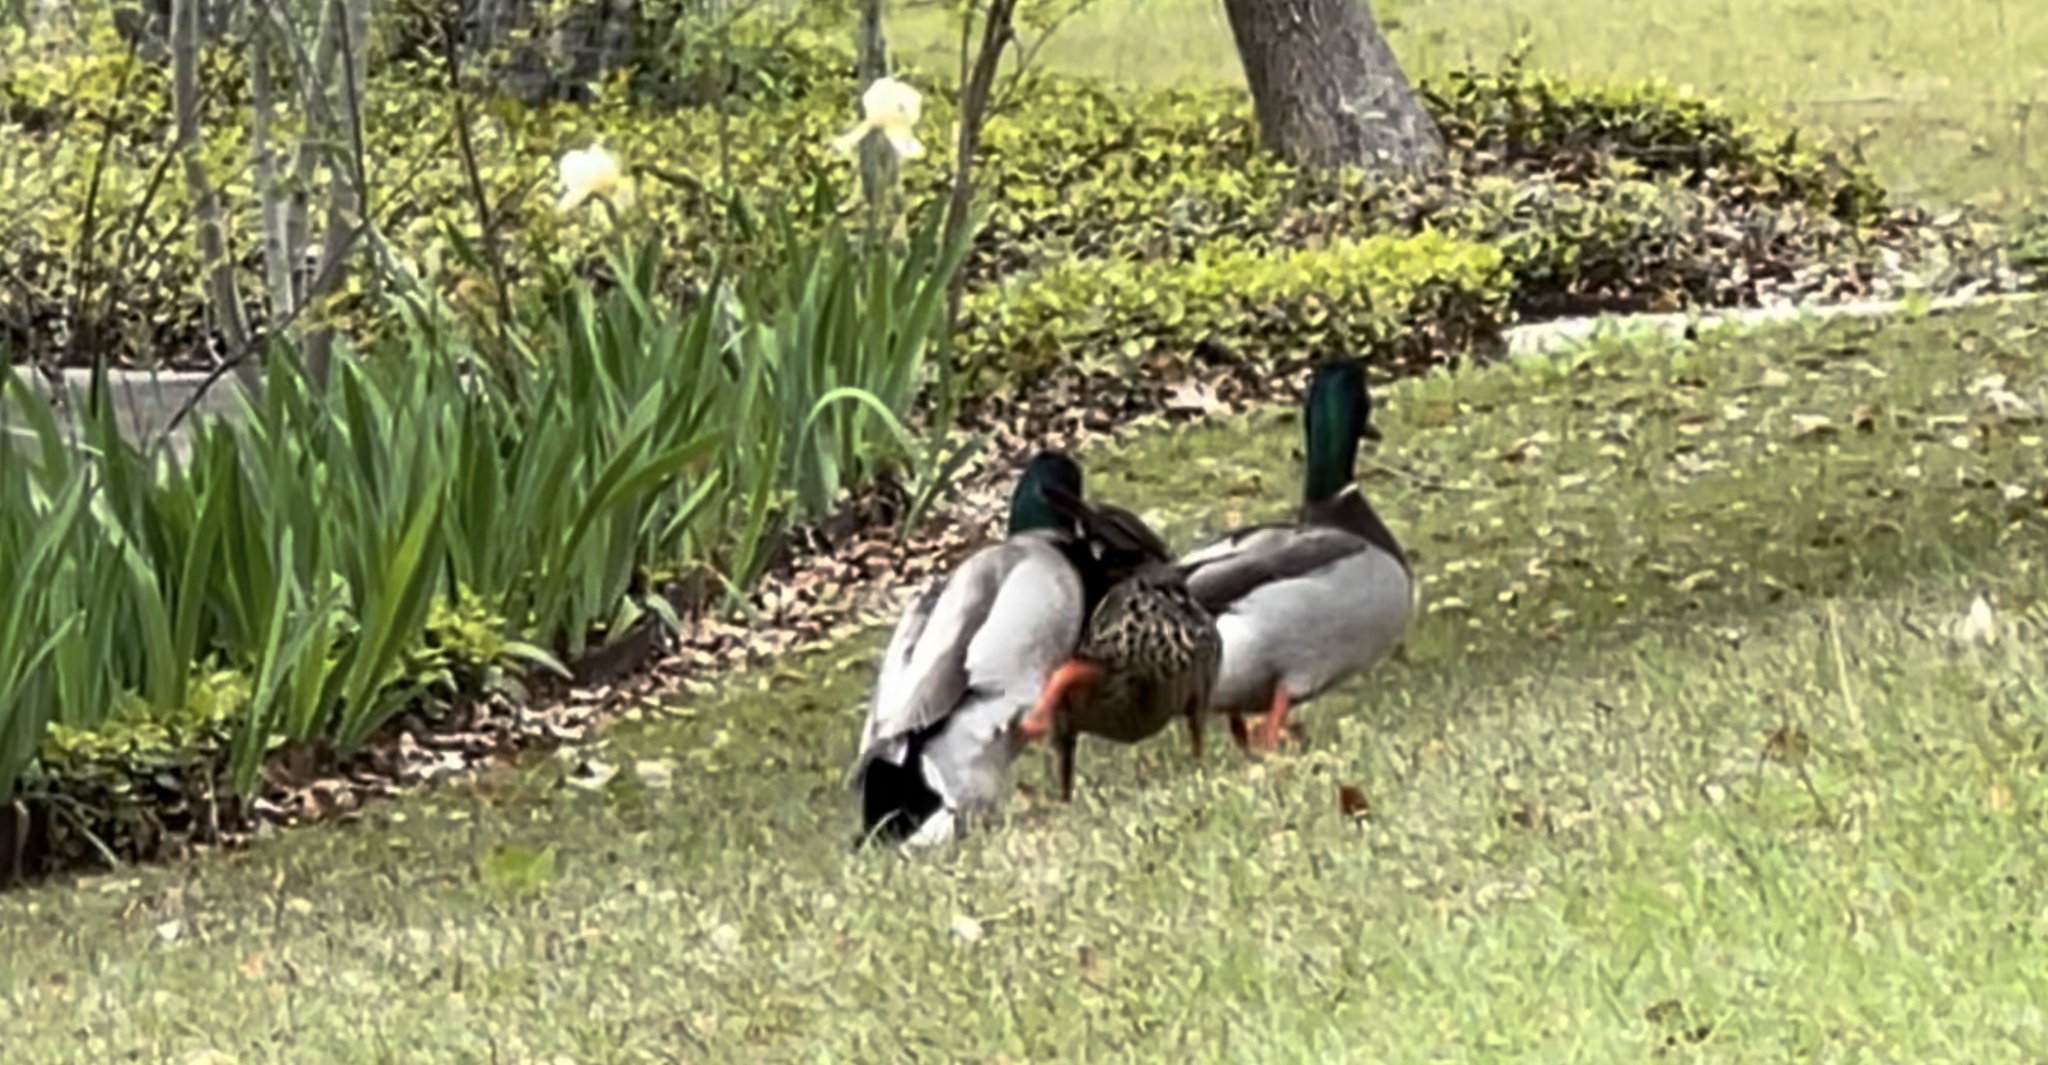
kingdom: Animalia
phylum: Chordata
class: Aves
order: Anseriformes
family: Anatidae
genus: Anas
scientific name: Anas platyrhynchos
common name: Mallard
